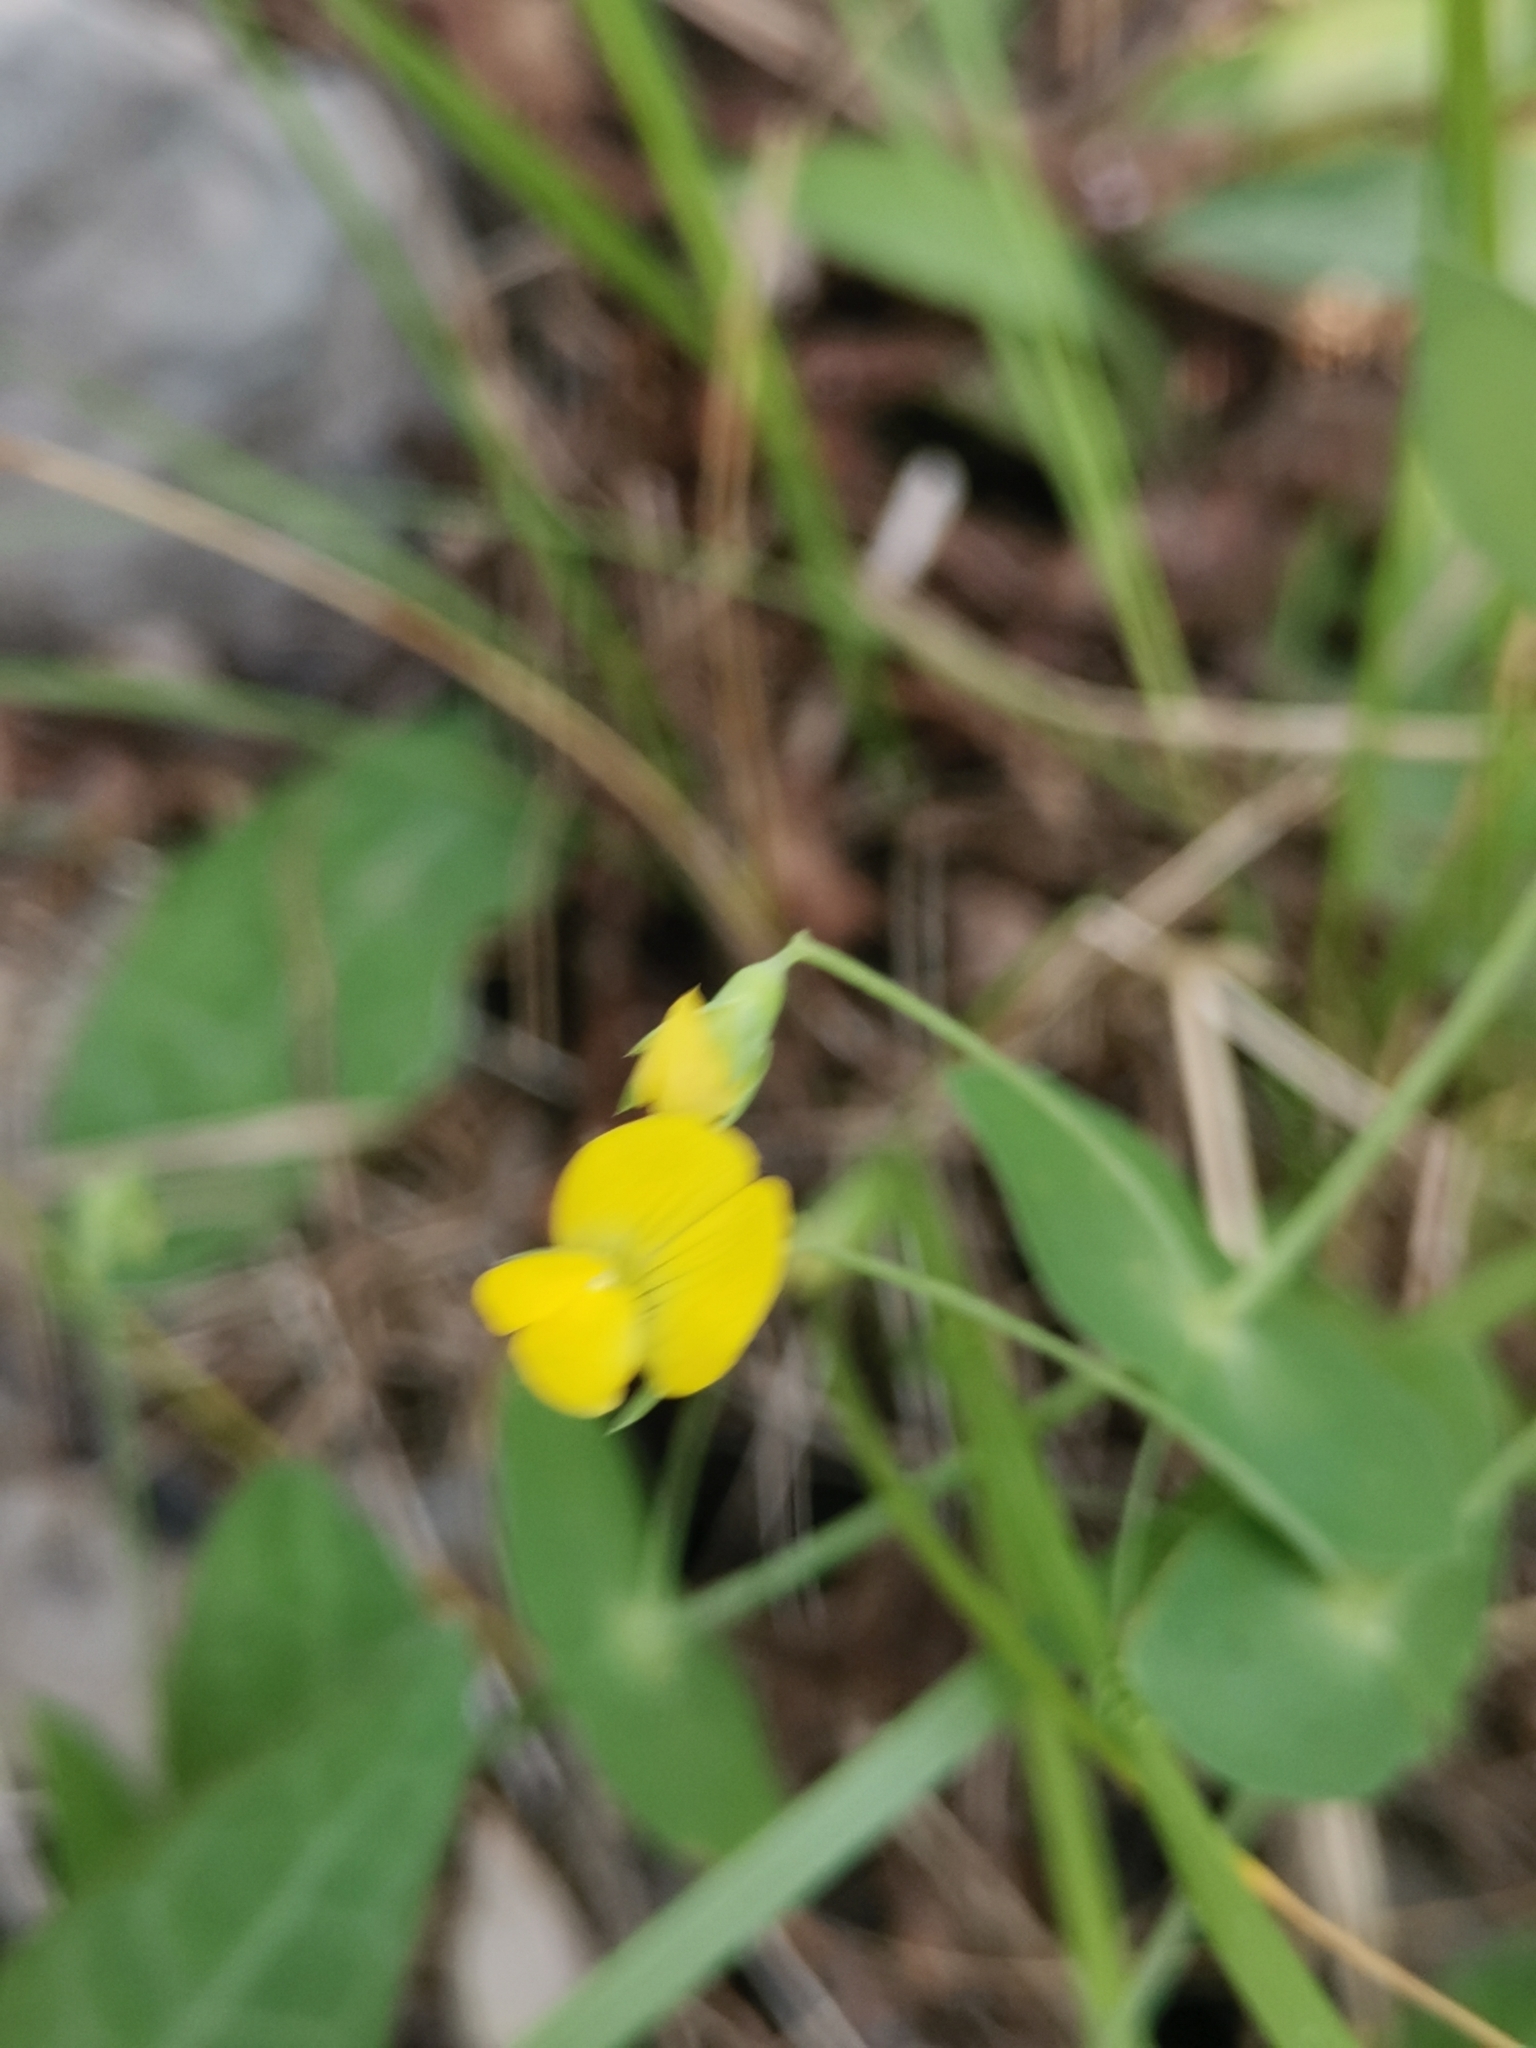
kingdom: Plantae
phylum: Tracheophyta
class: Magnoliopsida
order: Fabales
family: Fabaceae
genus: Lathyrus
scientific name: Lathyrus aphaca
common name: Yellow vetchling
